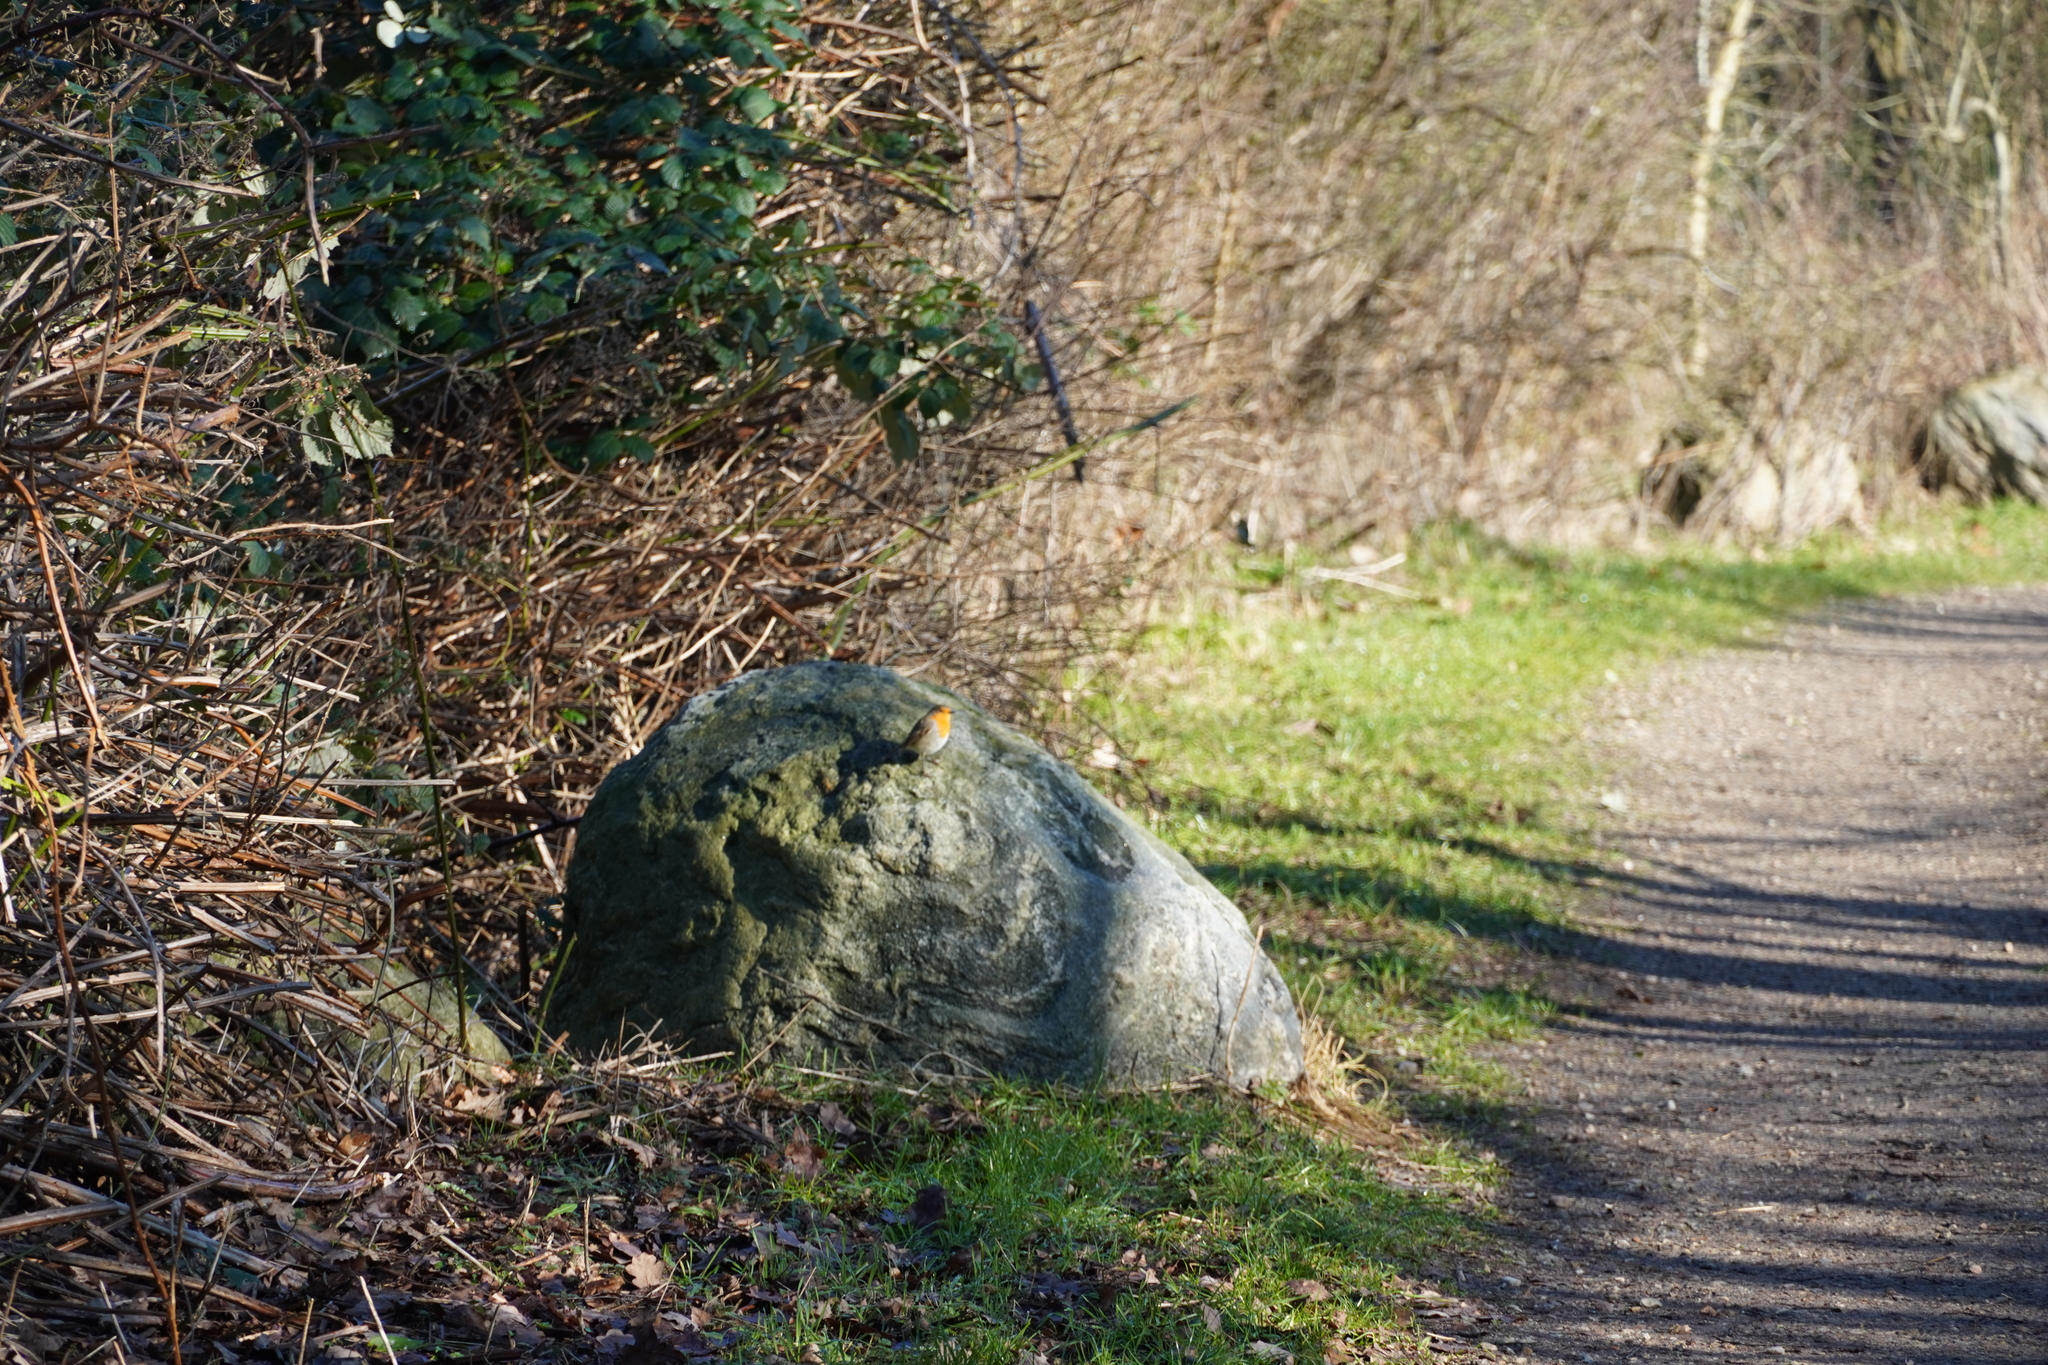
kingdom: Animalia
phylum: Chordata
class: Aves
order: Passeriformes
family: Muscicapidae
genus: Erithacus
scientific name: Erithacus rubecula
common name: European robin
